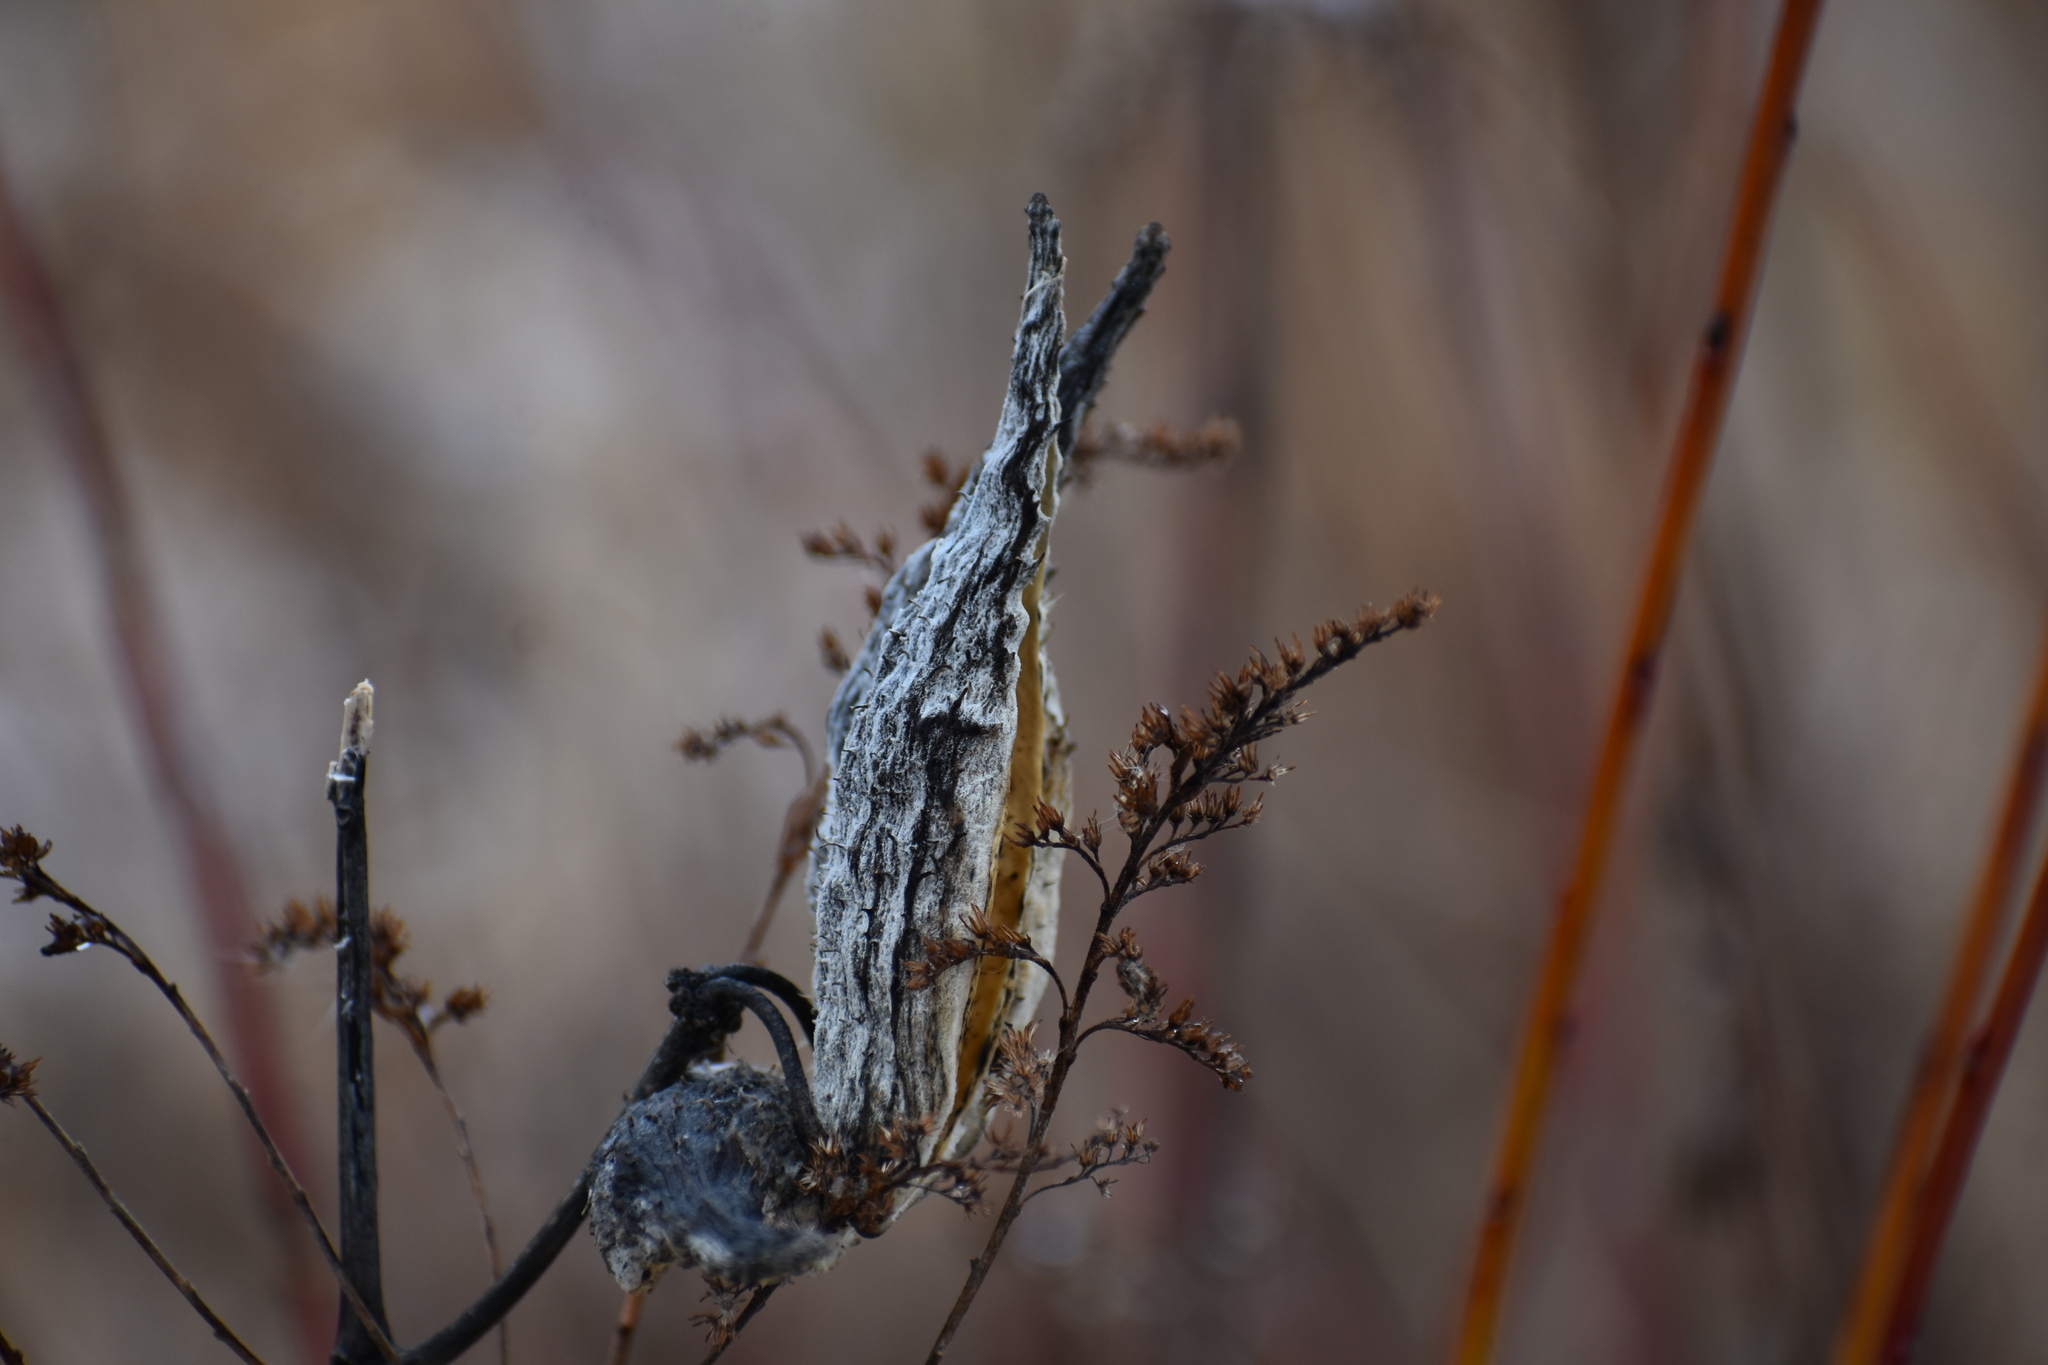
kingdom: Plantae
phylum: Tracheophyta
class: Magnoliopsida
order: Gentianales
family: Apocynaceae
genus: Asclepias
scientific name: Asclepias syriaca
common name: Common milkweed
